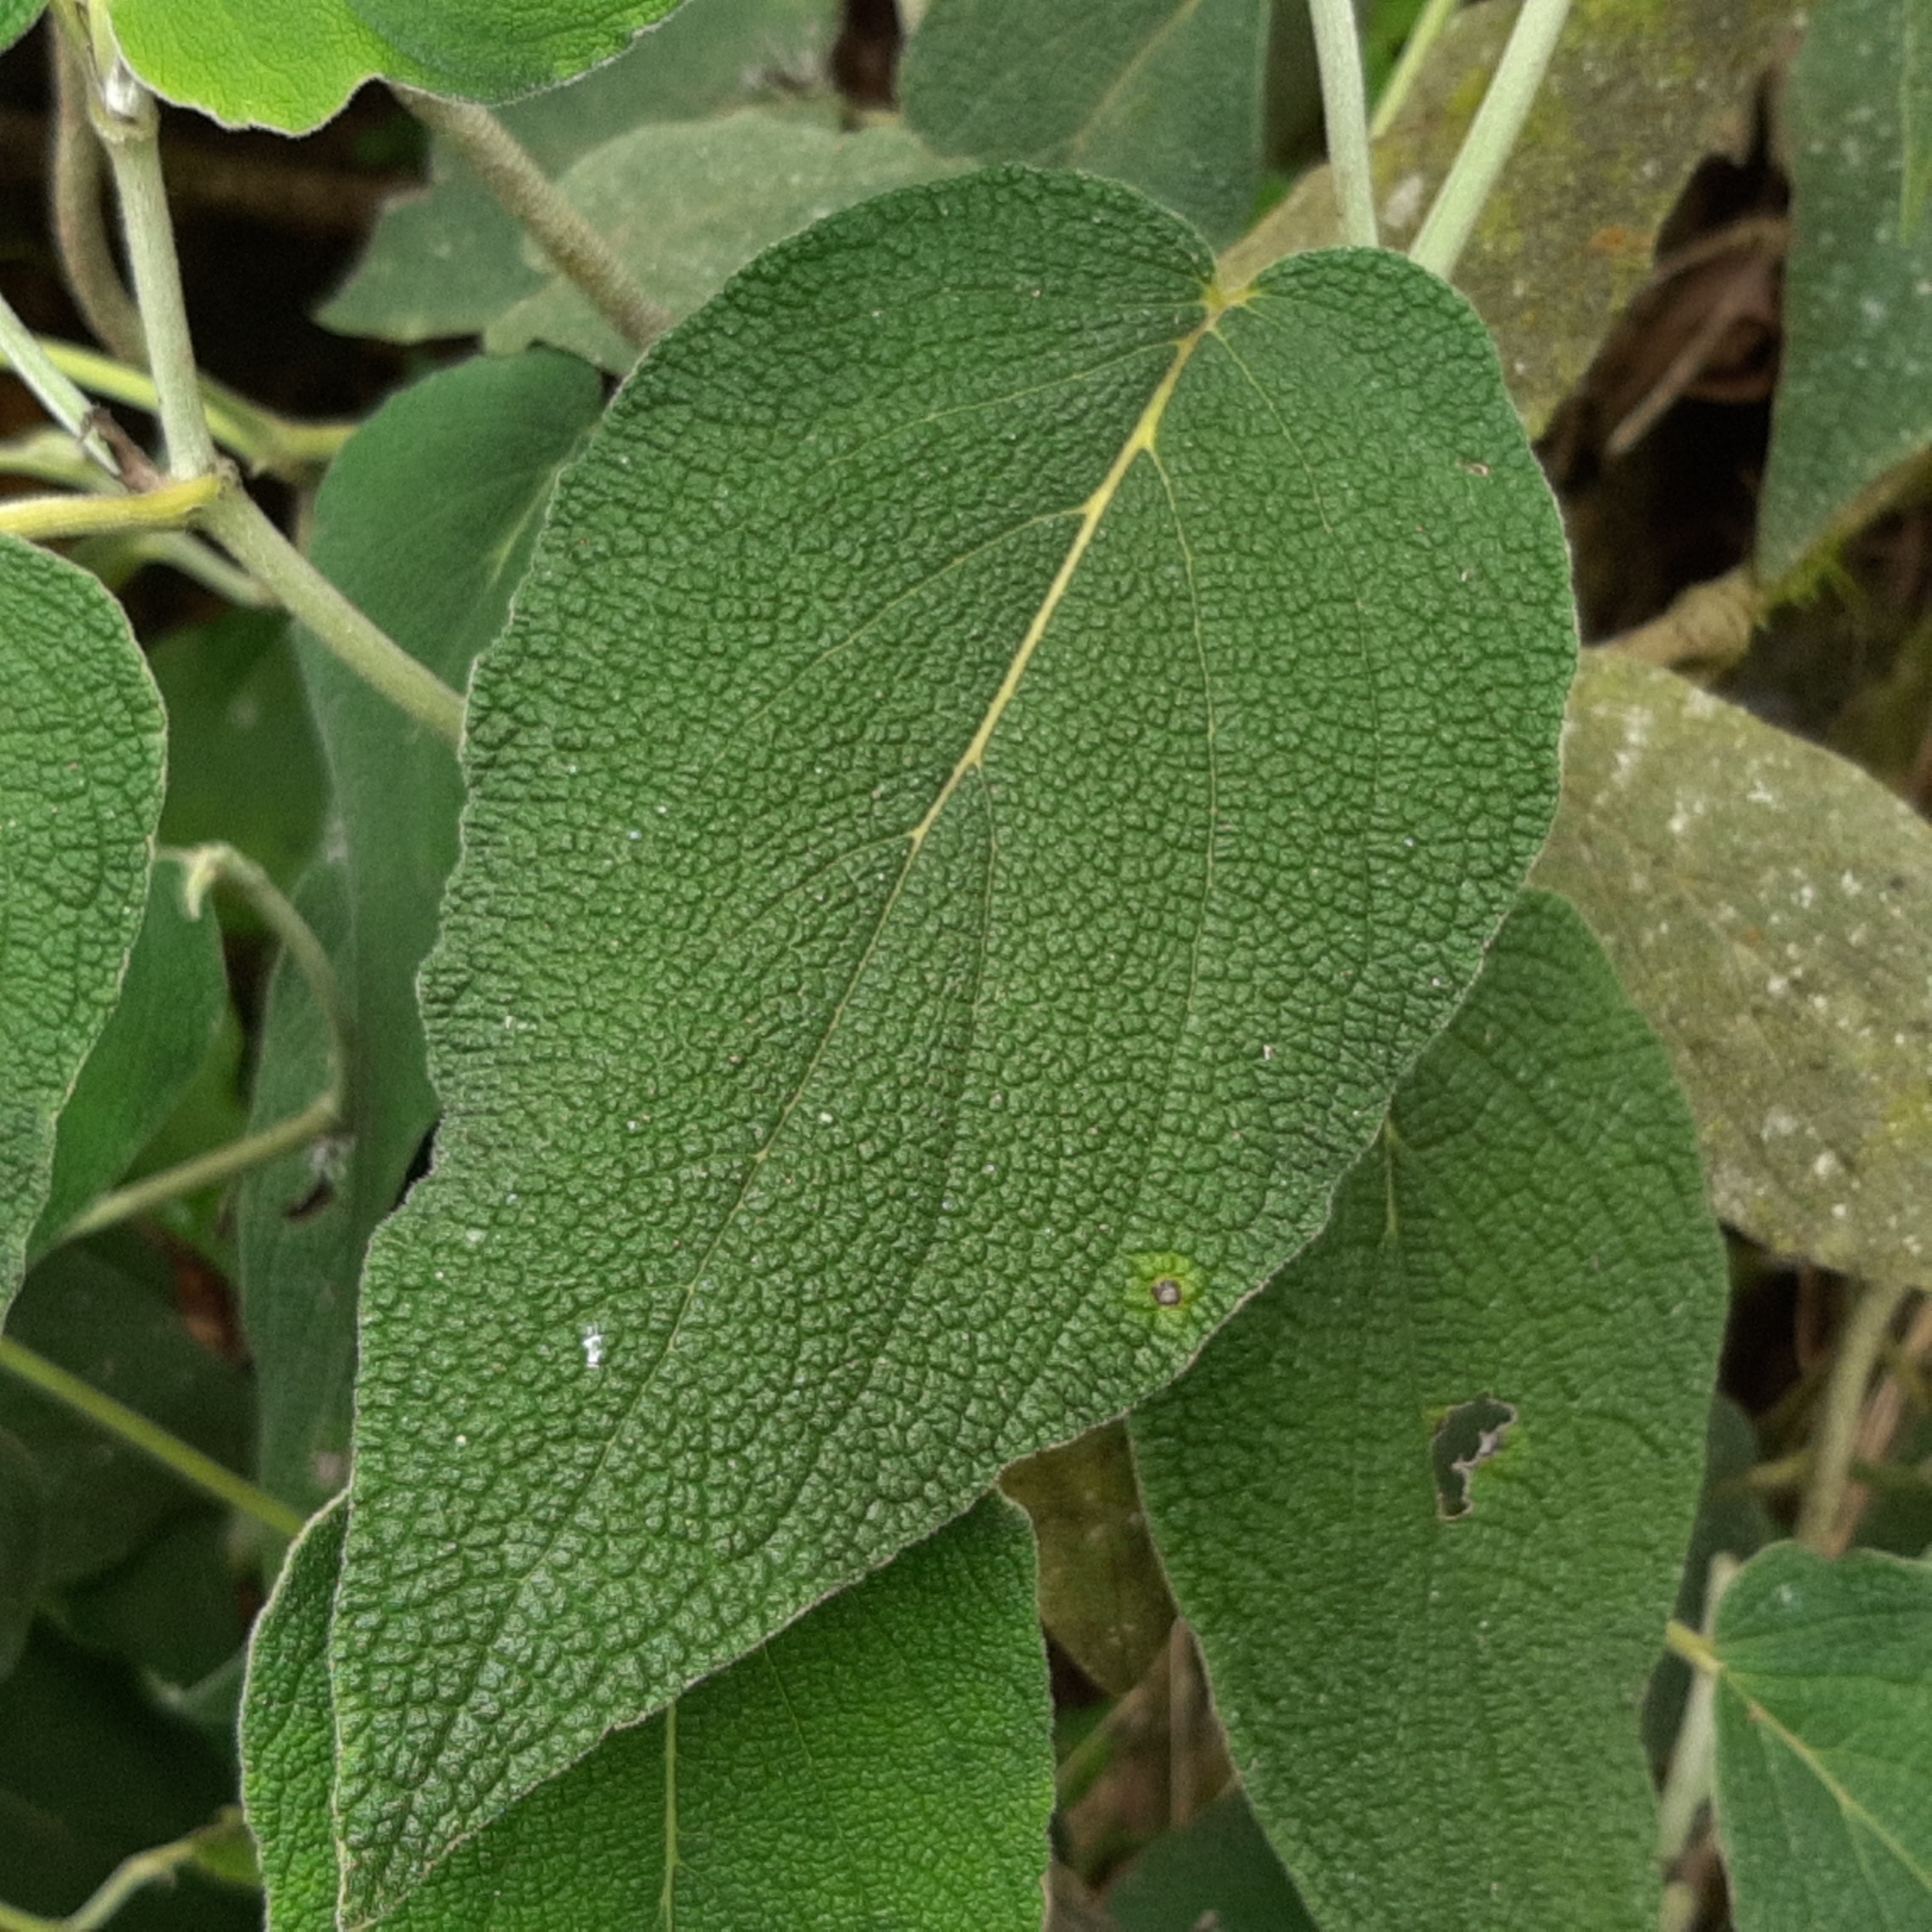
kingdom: Plantae
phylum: Tracheophyta
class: Magnoliopsida
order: Piperales
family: Piperaceae
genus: Piper
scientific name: Piper bredemeyeri
